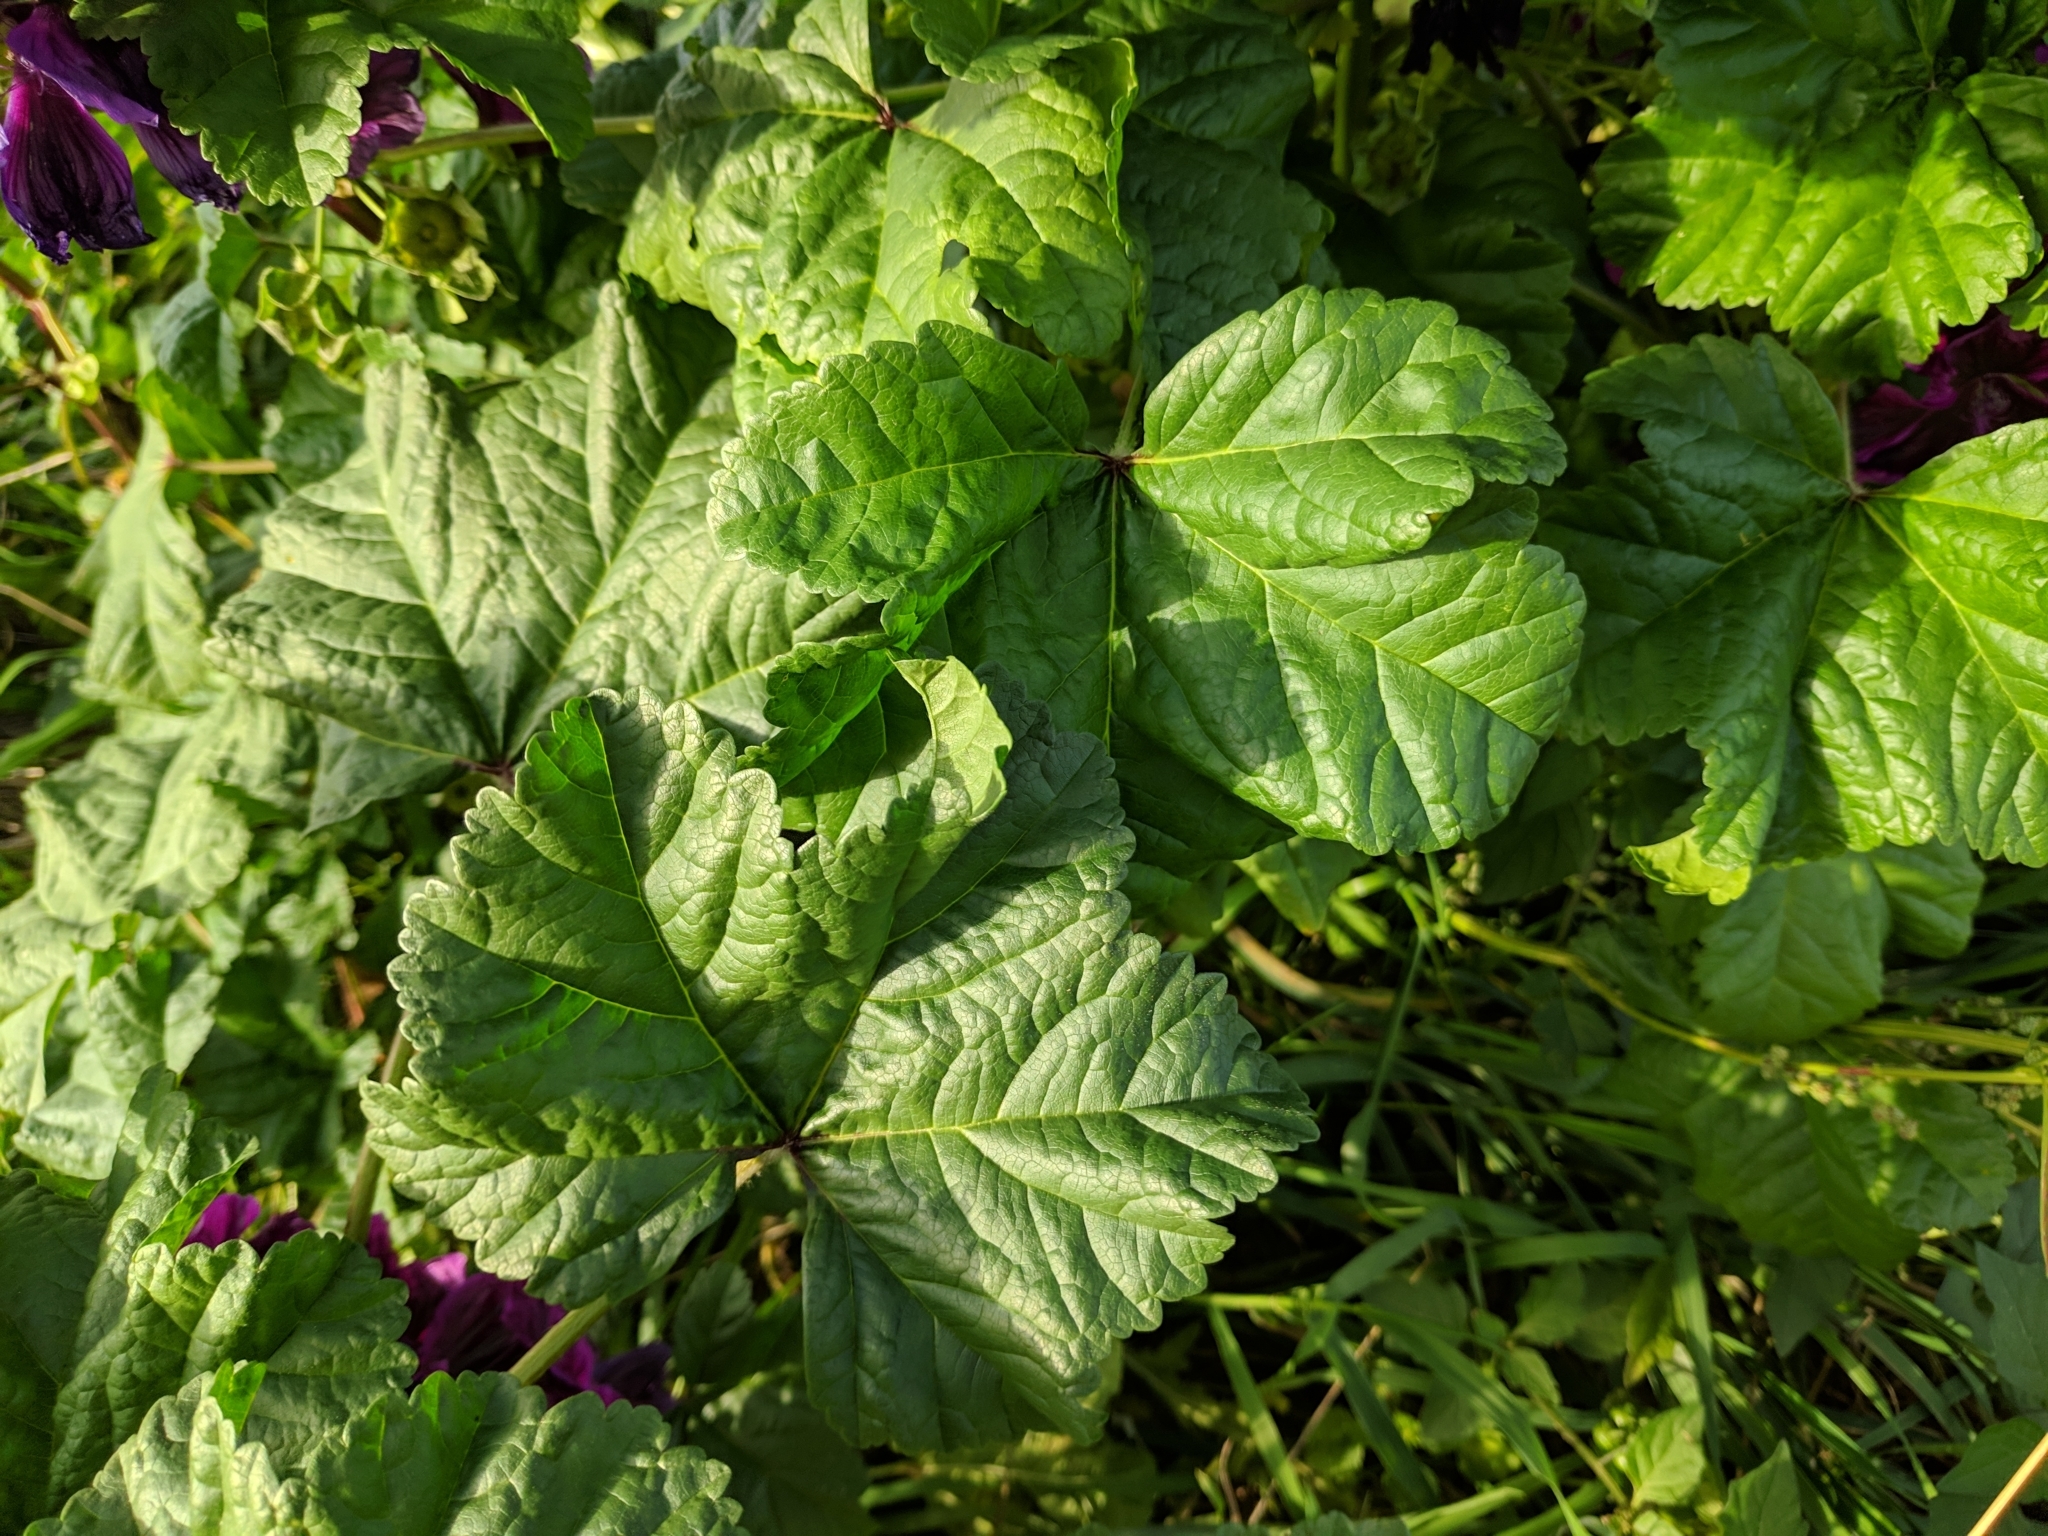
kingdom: Plantae
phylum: Tracheophyta
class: Magnoliopsida
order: Malvales
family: Malvaceae
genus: Malva
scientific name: Malva sylvestris
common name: Common mallow
